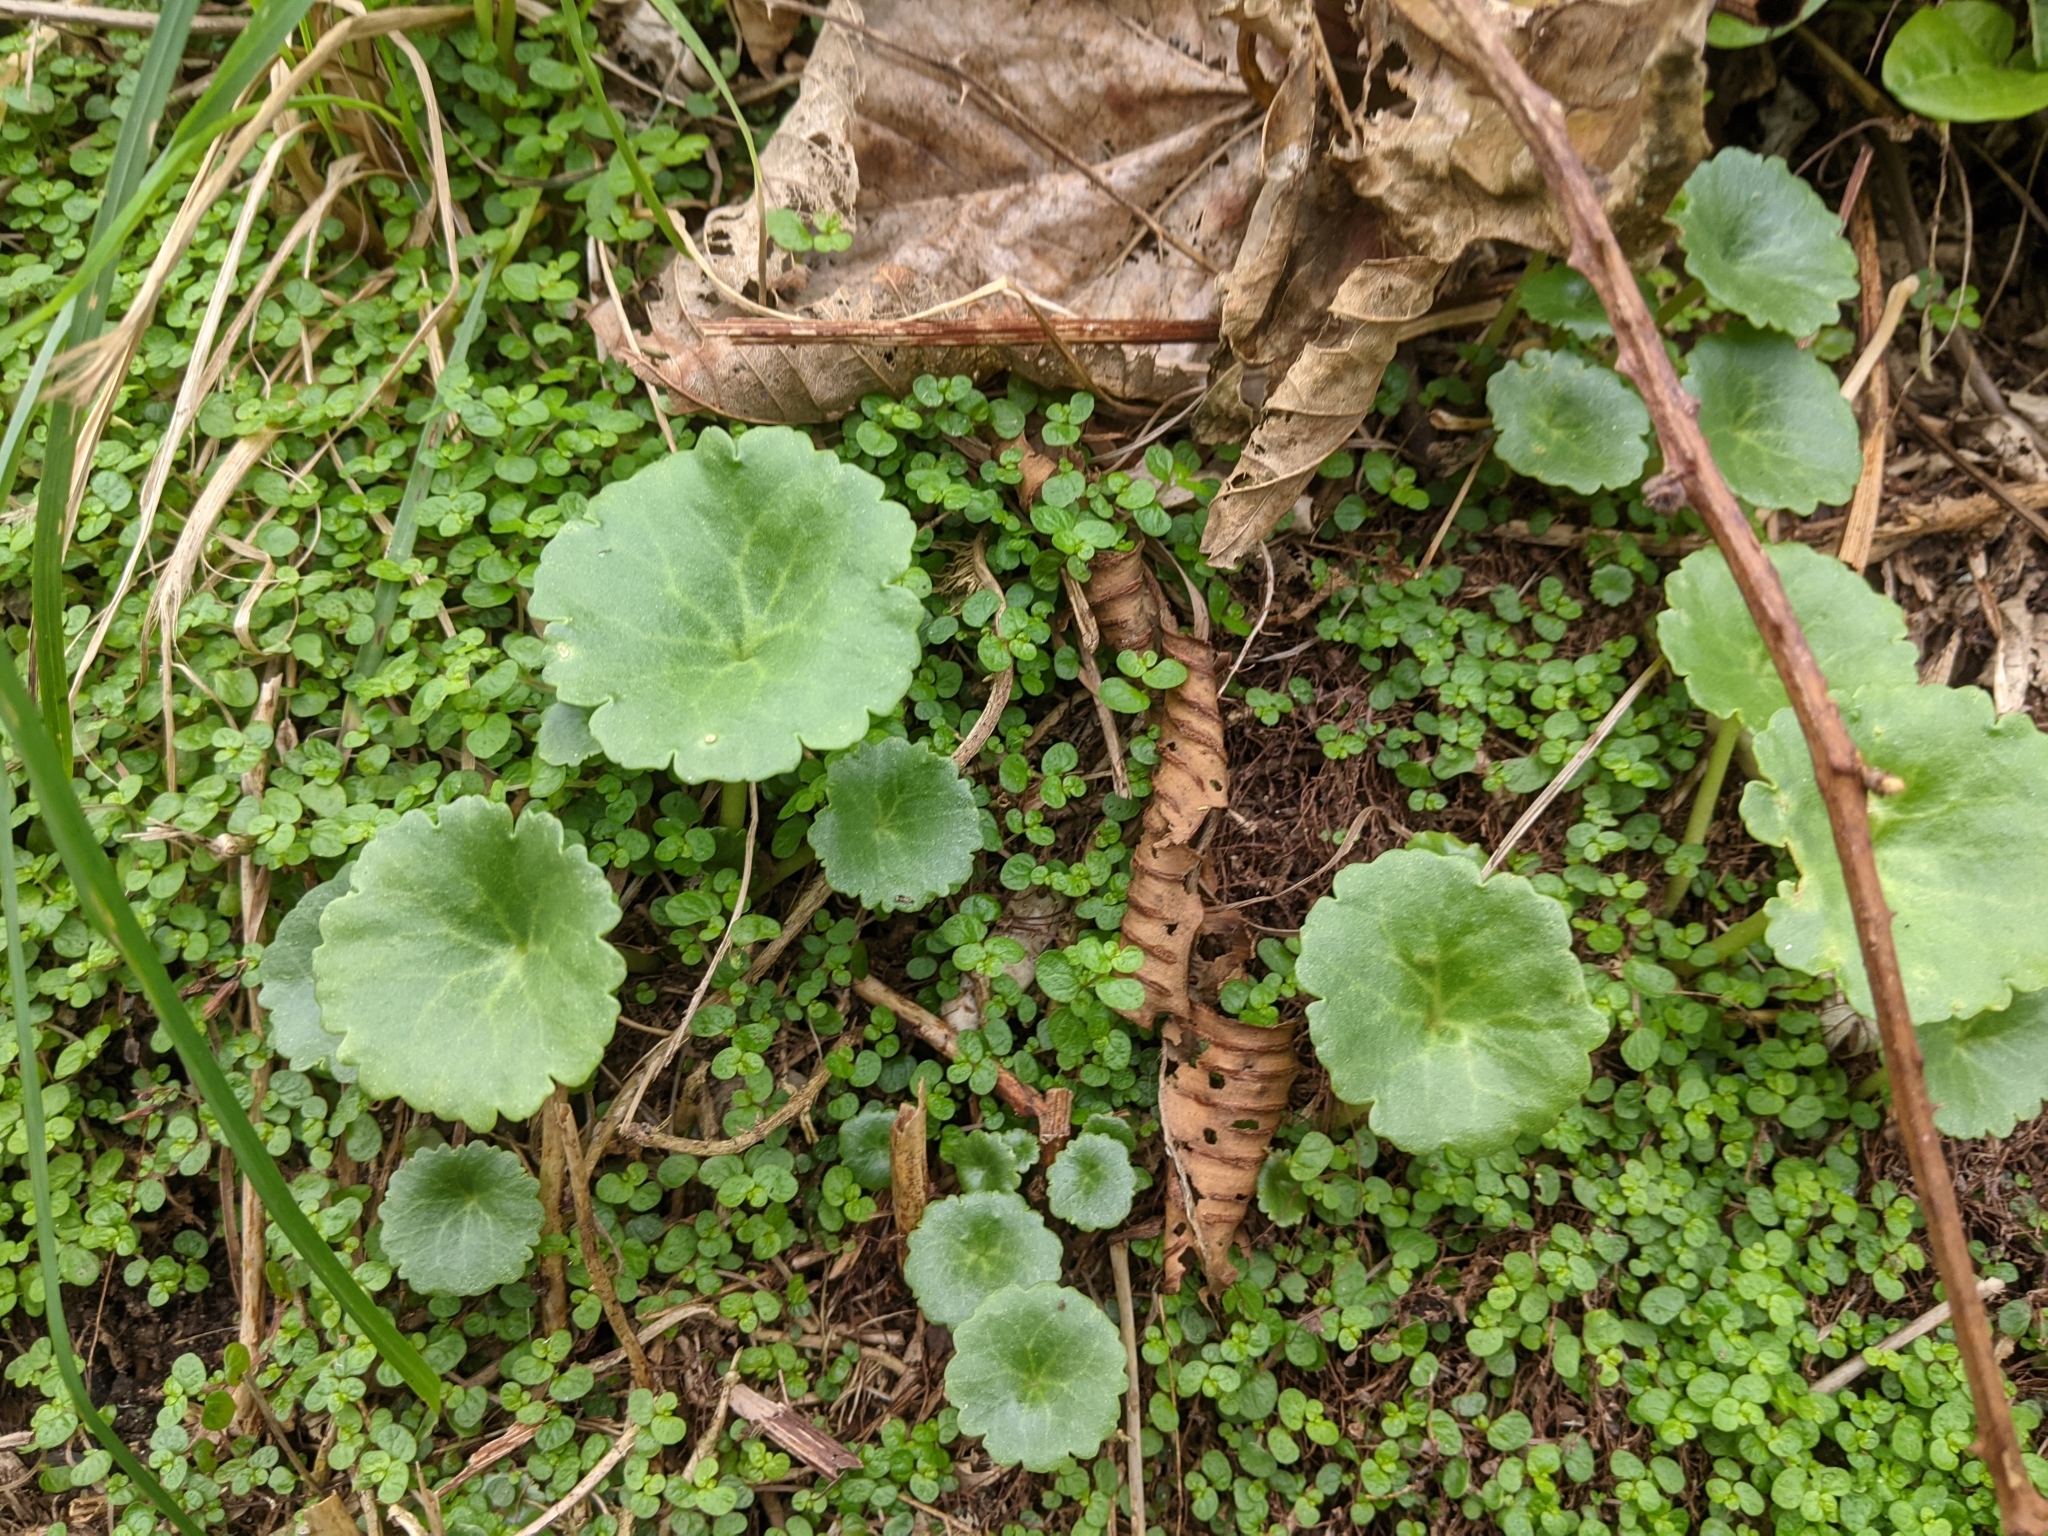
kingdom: Plantae
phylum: Tracheophyta
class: Magnoliopsida
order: Saxifragales
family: Crassulaceae
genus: Umbilicus
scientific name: Umbilicus rupestris
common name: Navelwort
